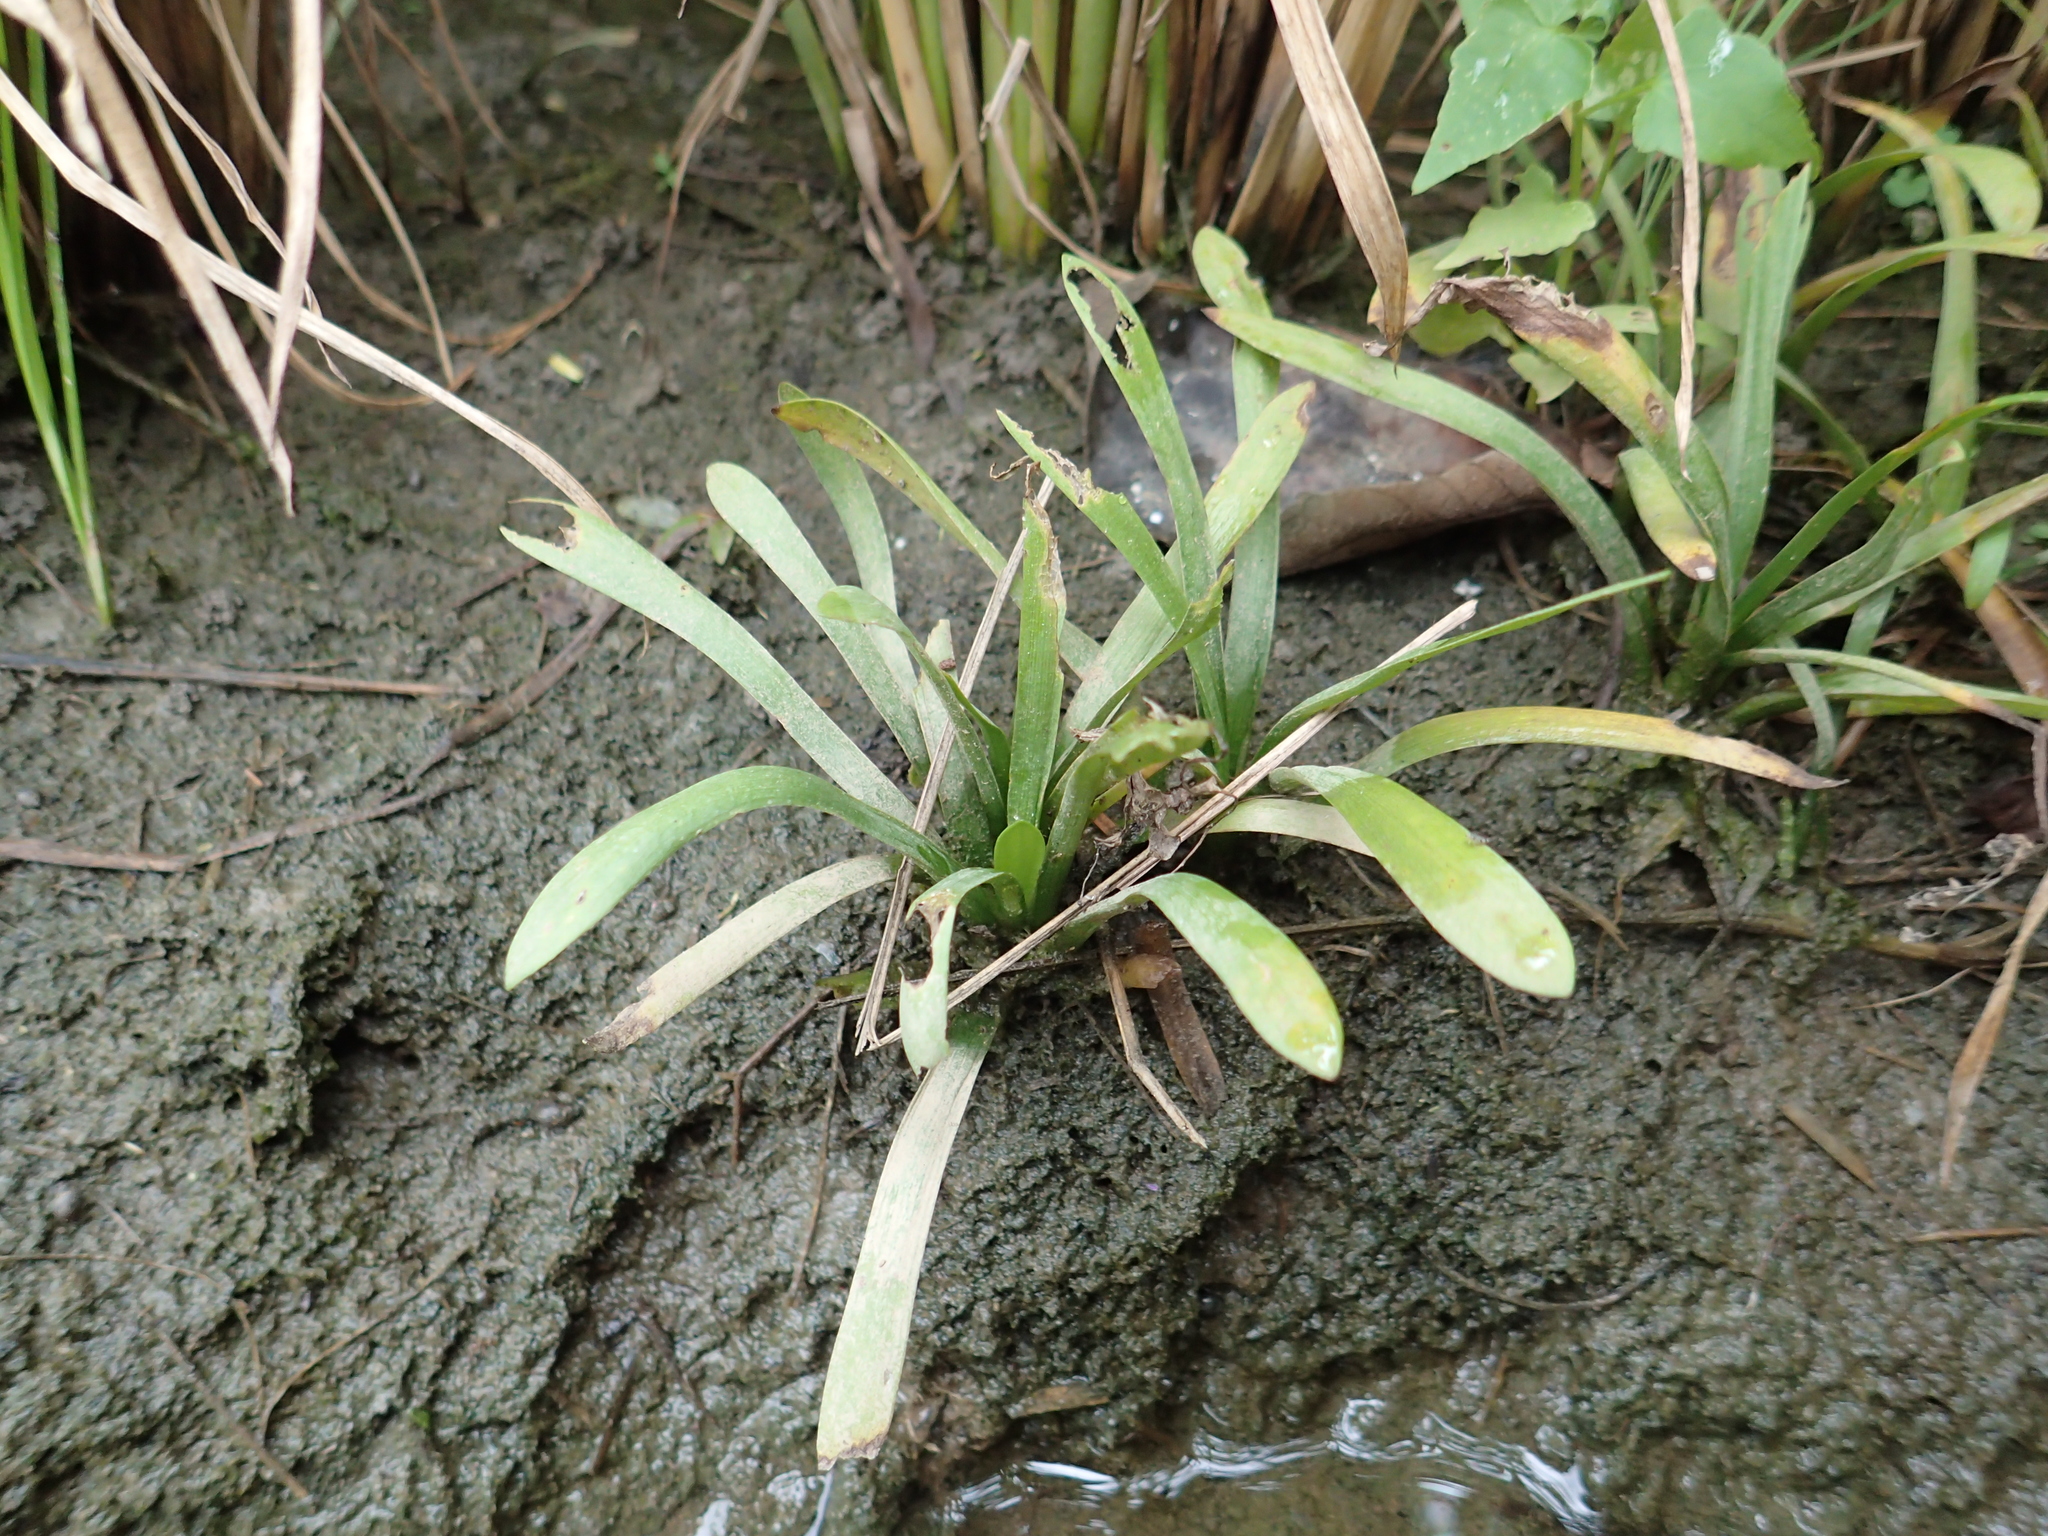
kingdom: Plantae
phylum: Tracheophyta
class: Liliopsida
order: Alismatales
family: Alismataceae
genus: Sagittaria
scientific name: Sagittaria pygmaea
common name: Pygmy arrowhead
